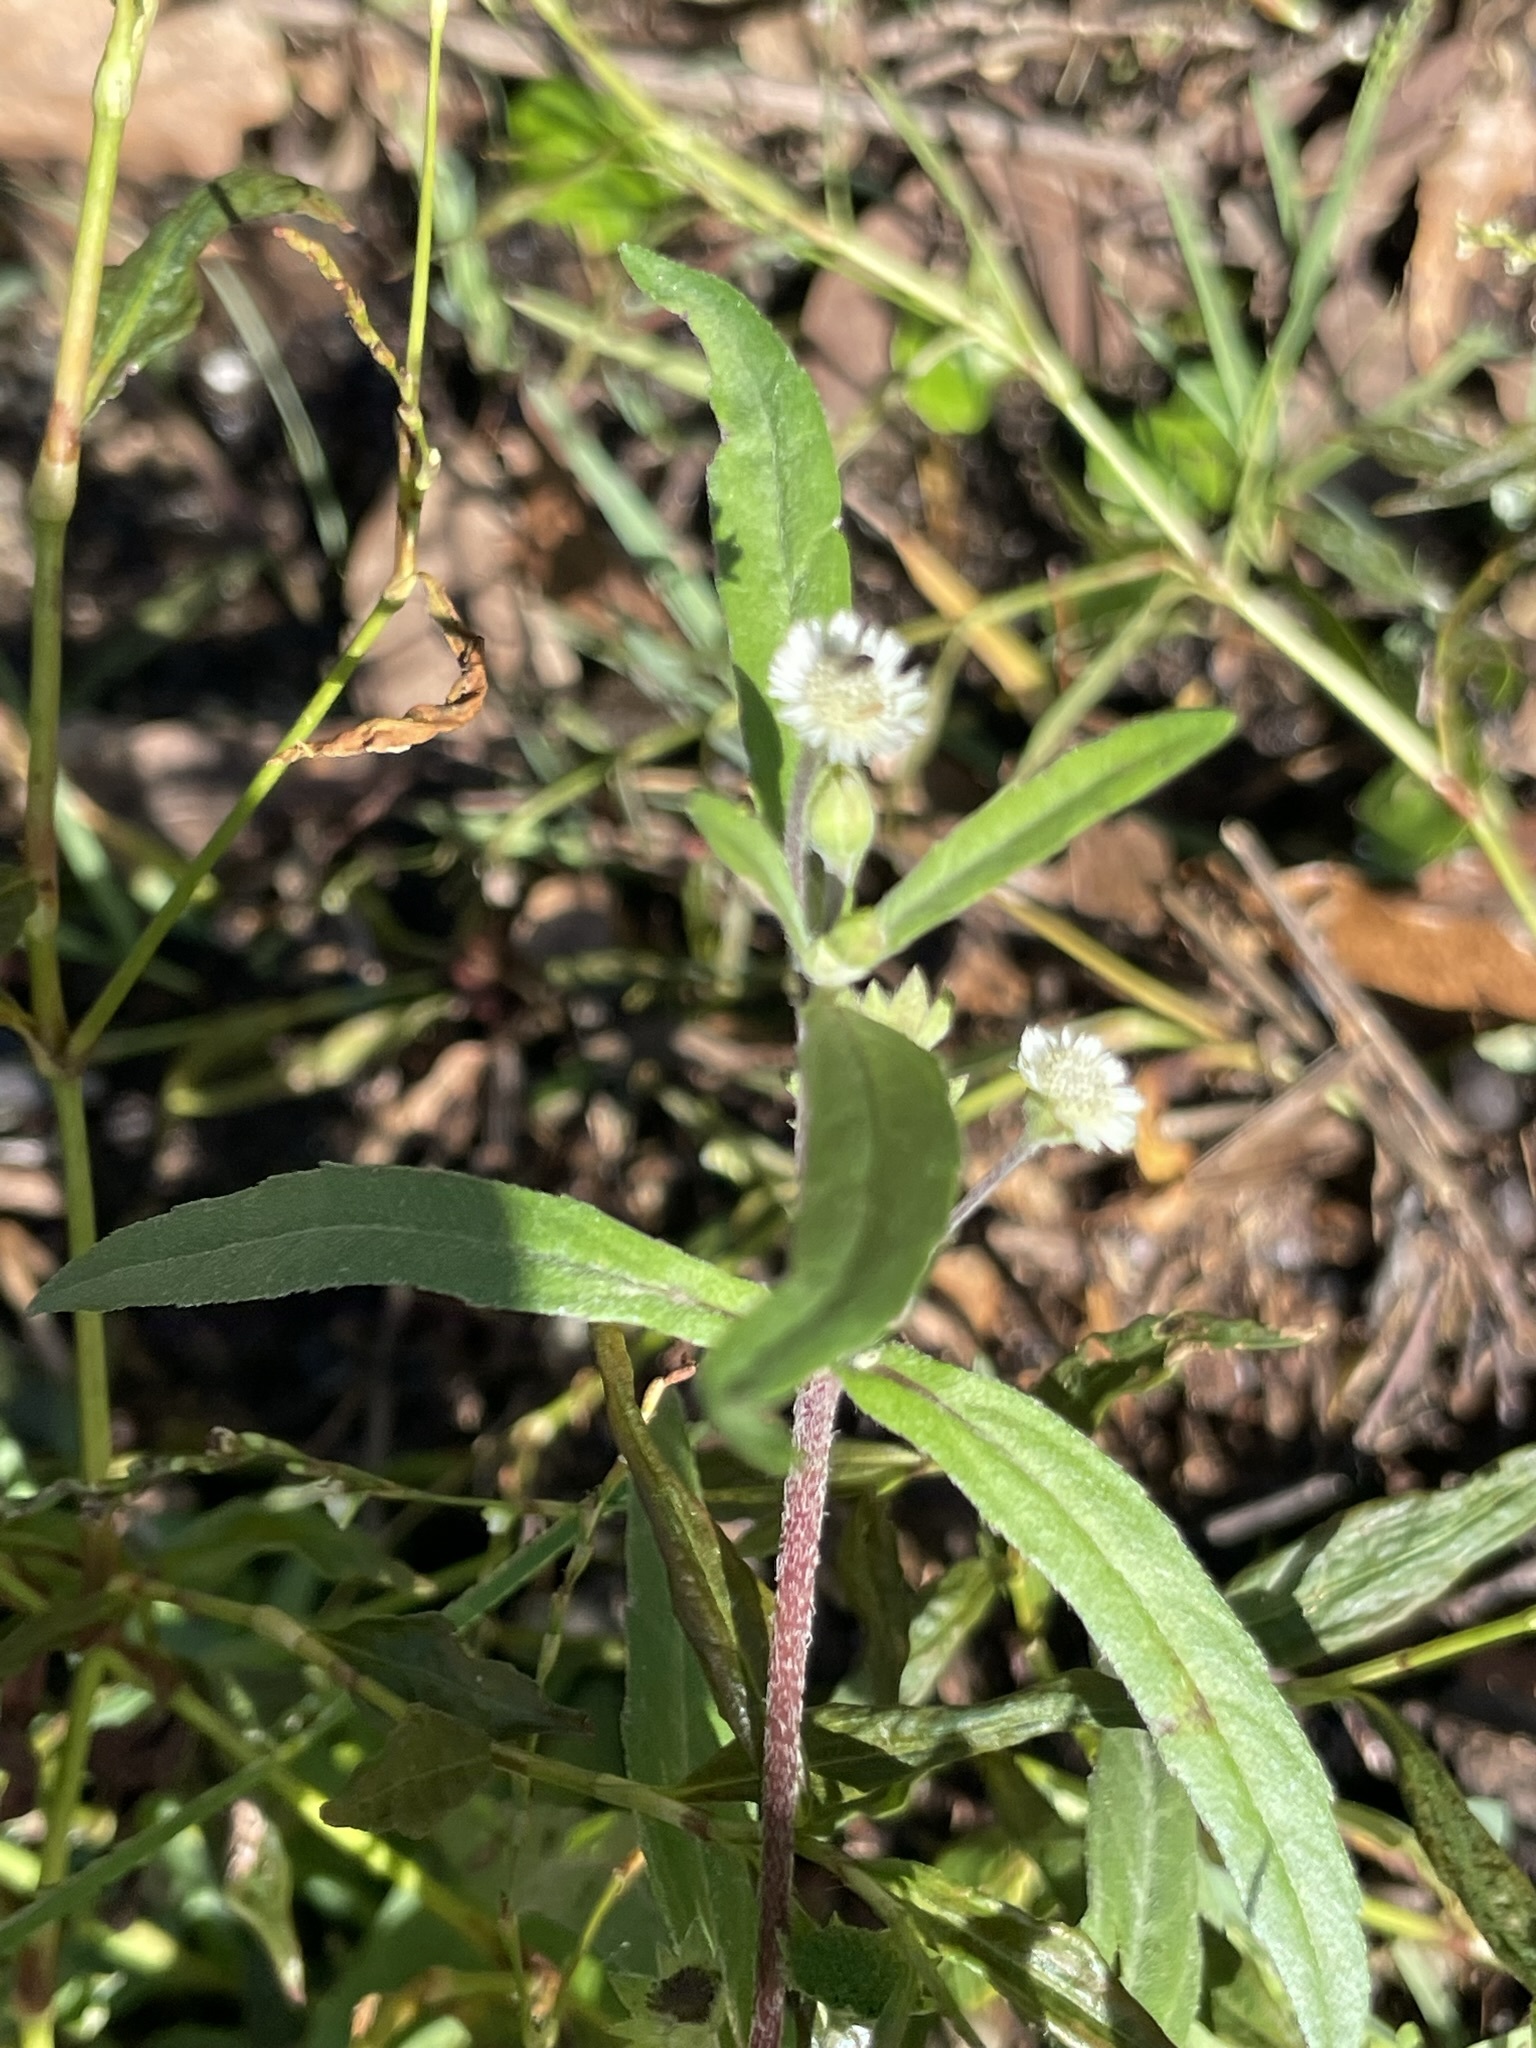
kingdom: Plantae
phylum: Tracheophyta
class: Magnoliopsida
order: Asterales
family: Asteraceae
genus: Eclipta
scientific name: Eclipta prostrata
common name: False daisy
